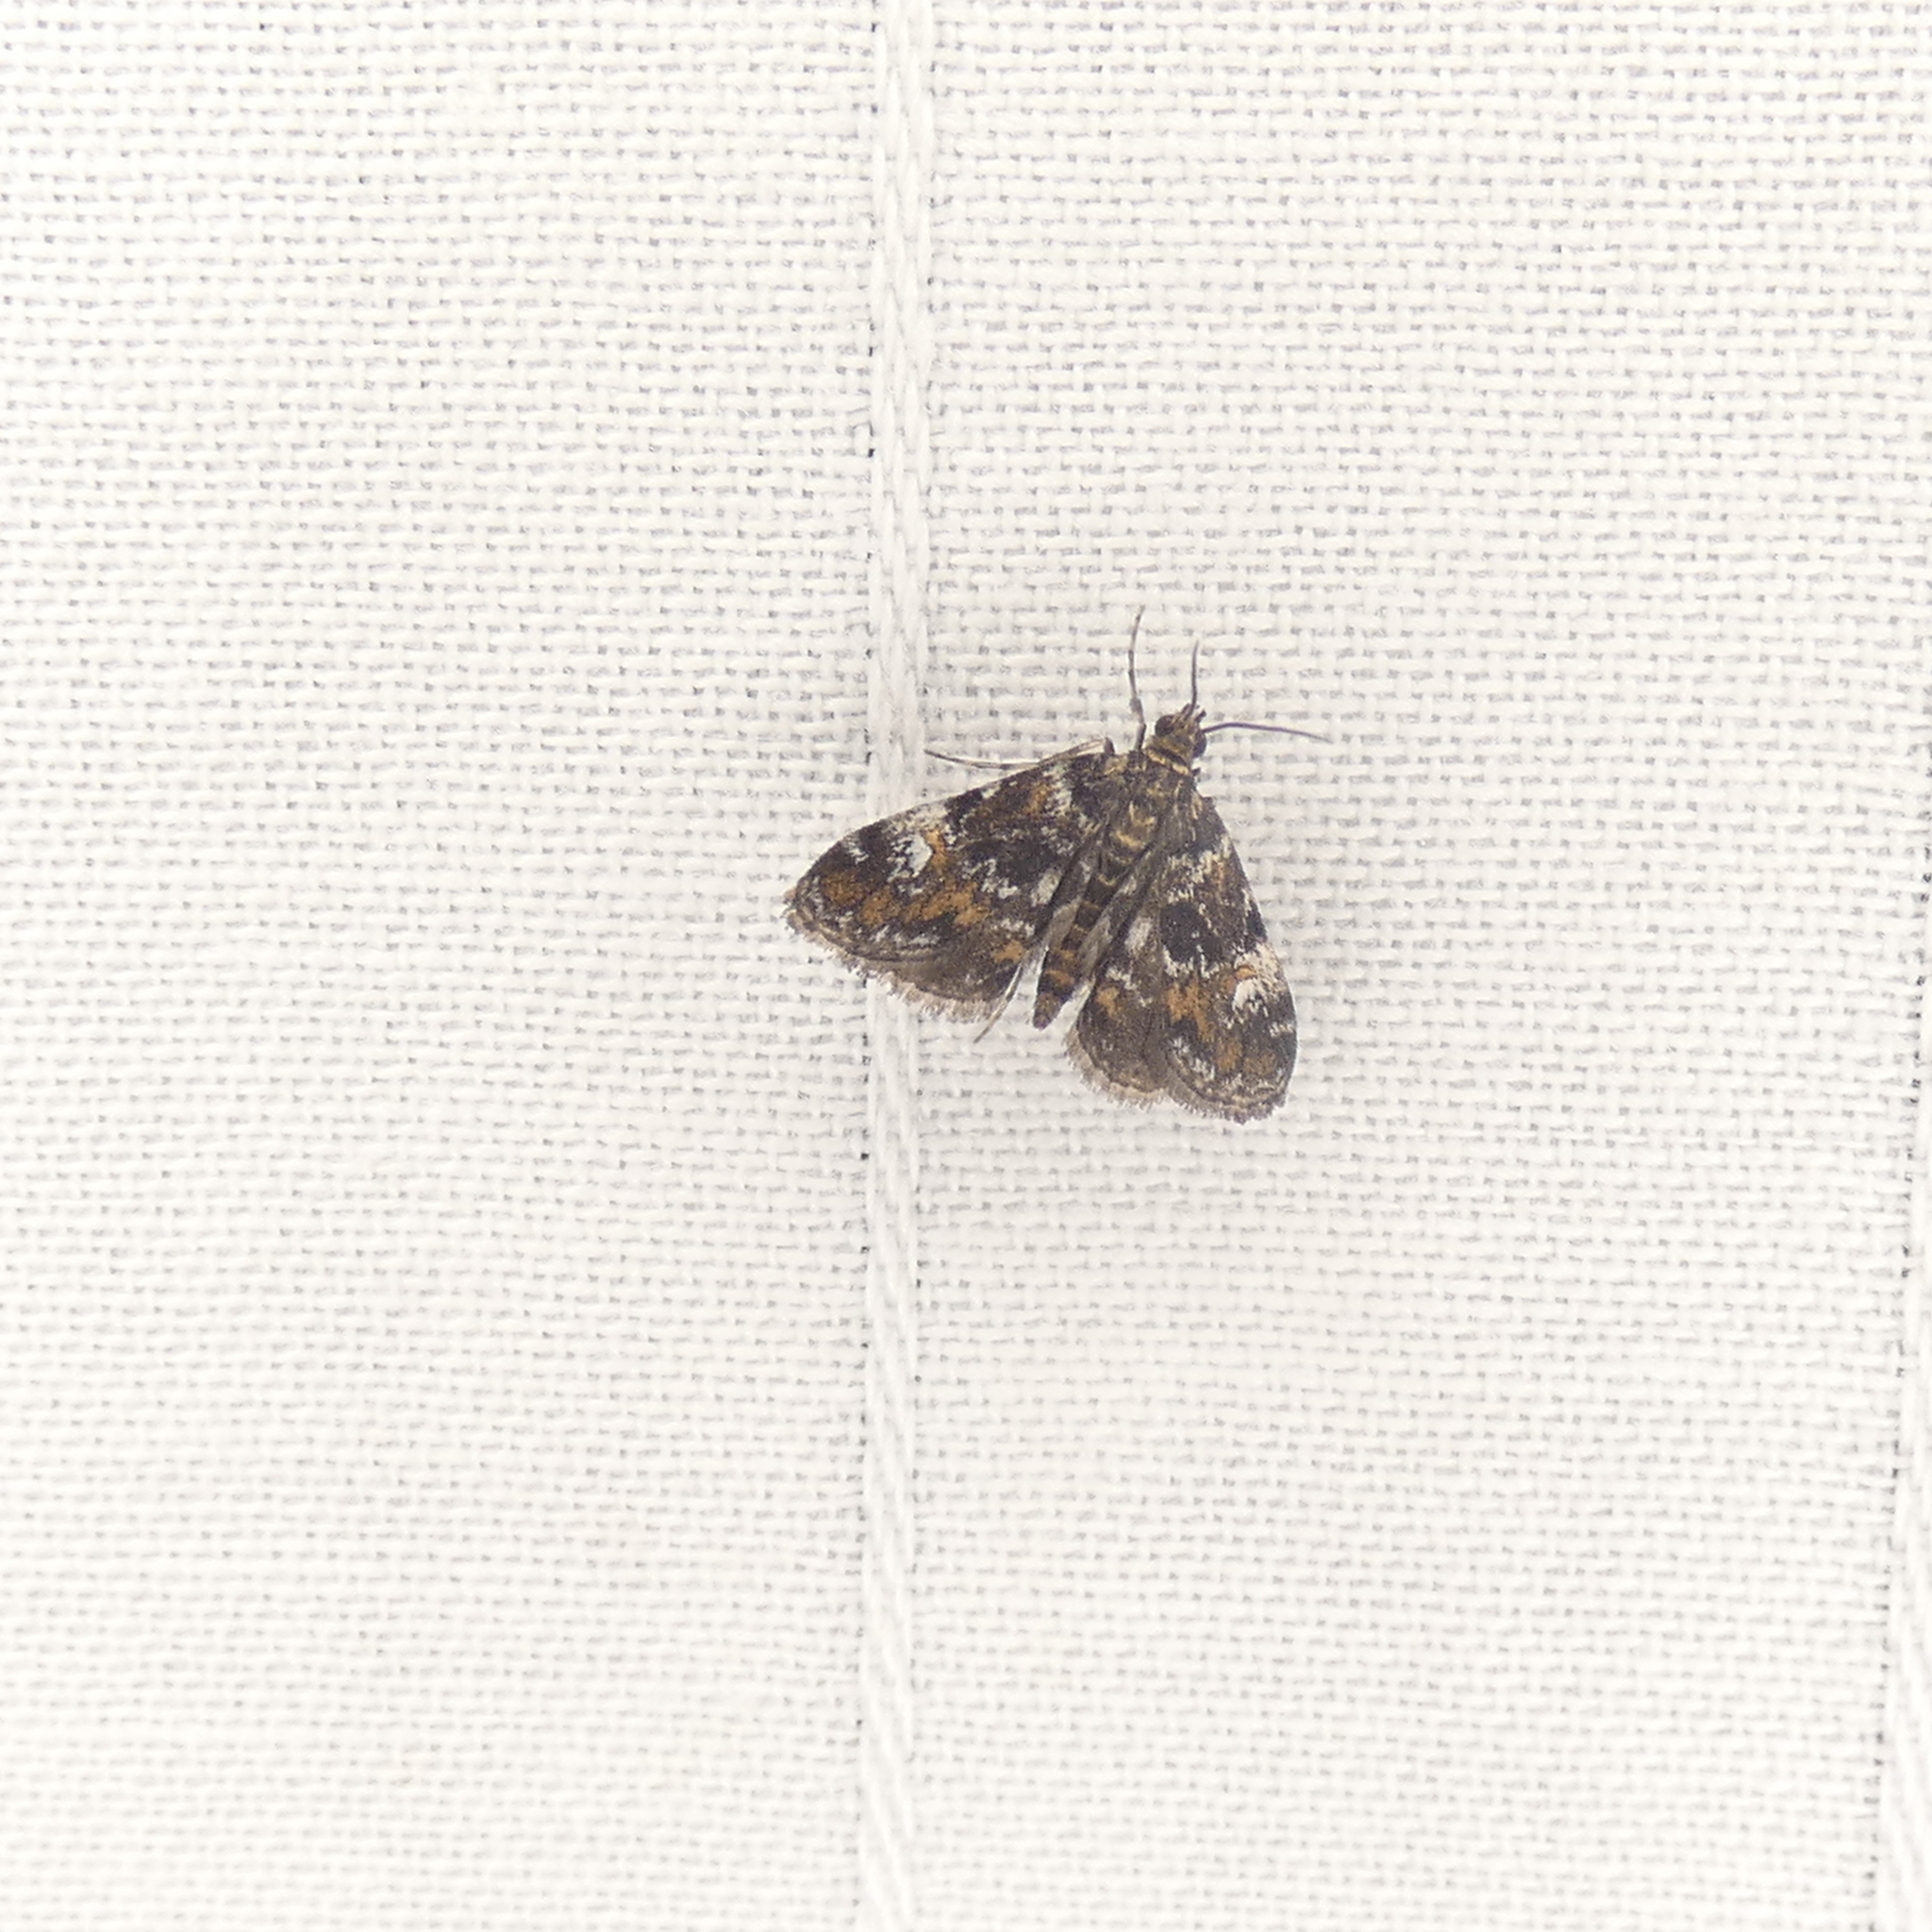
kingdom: Animalia
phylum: Arthropoda
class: Insecta
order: Lepidoptera
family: Crambidae
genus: Elophila
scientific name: Elophila obliteralis
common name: Waterlily leafcutter moth
